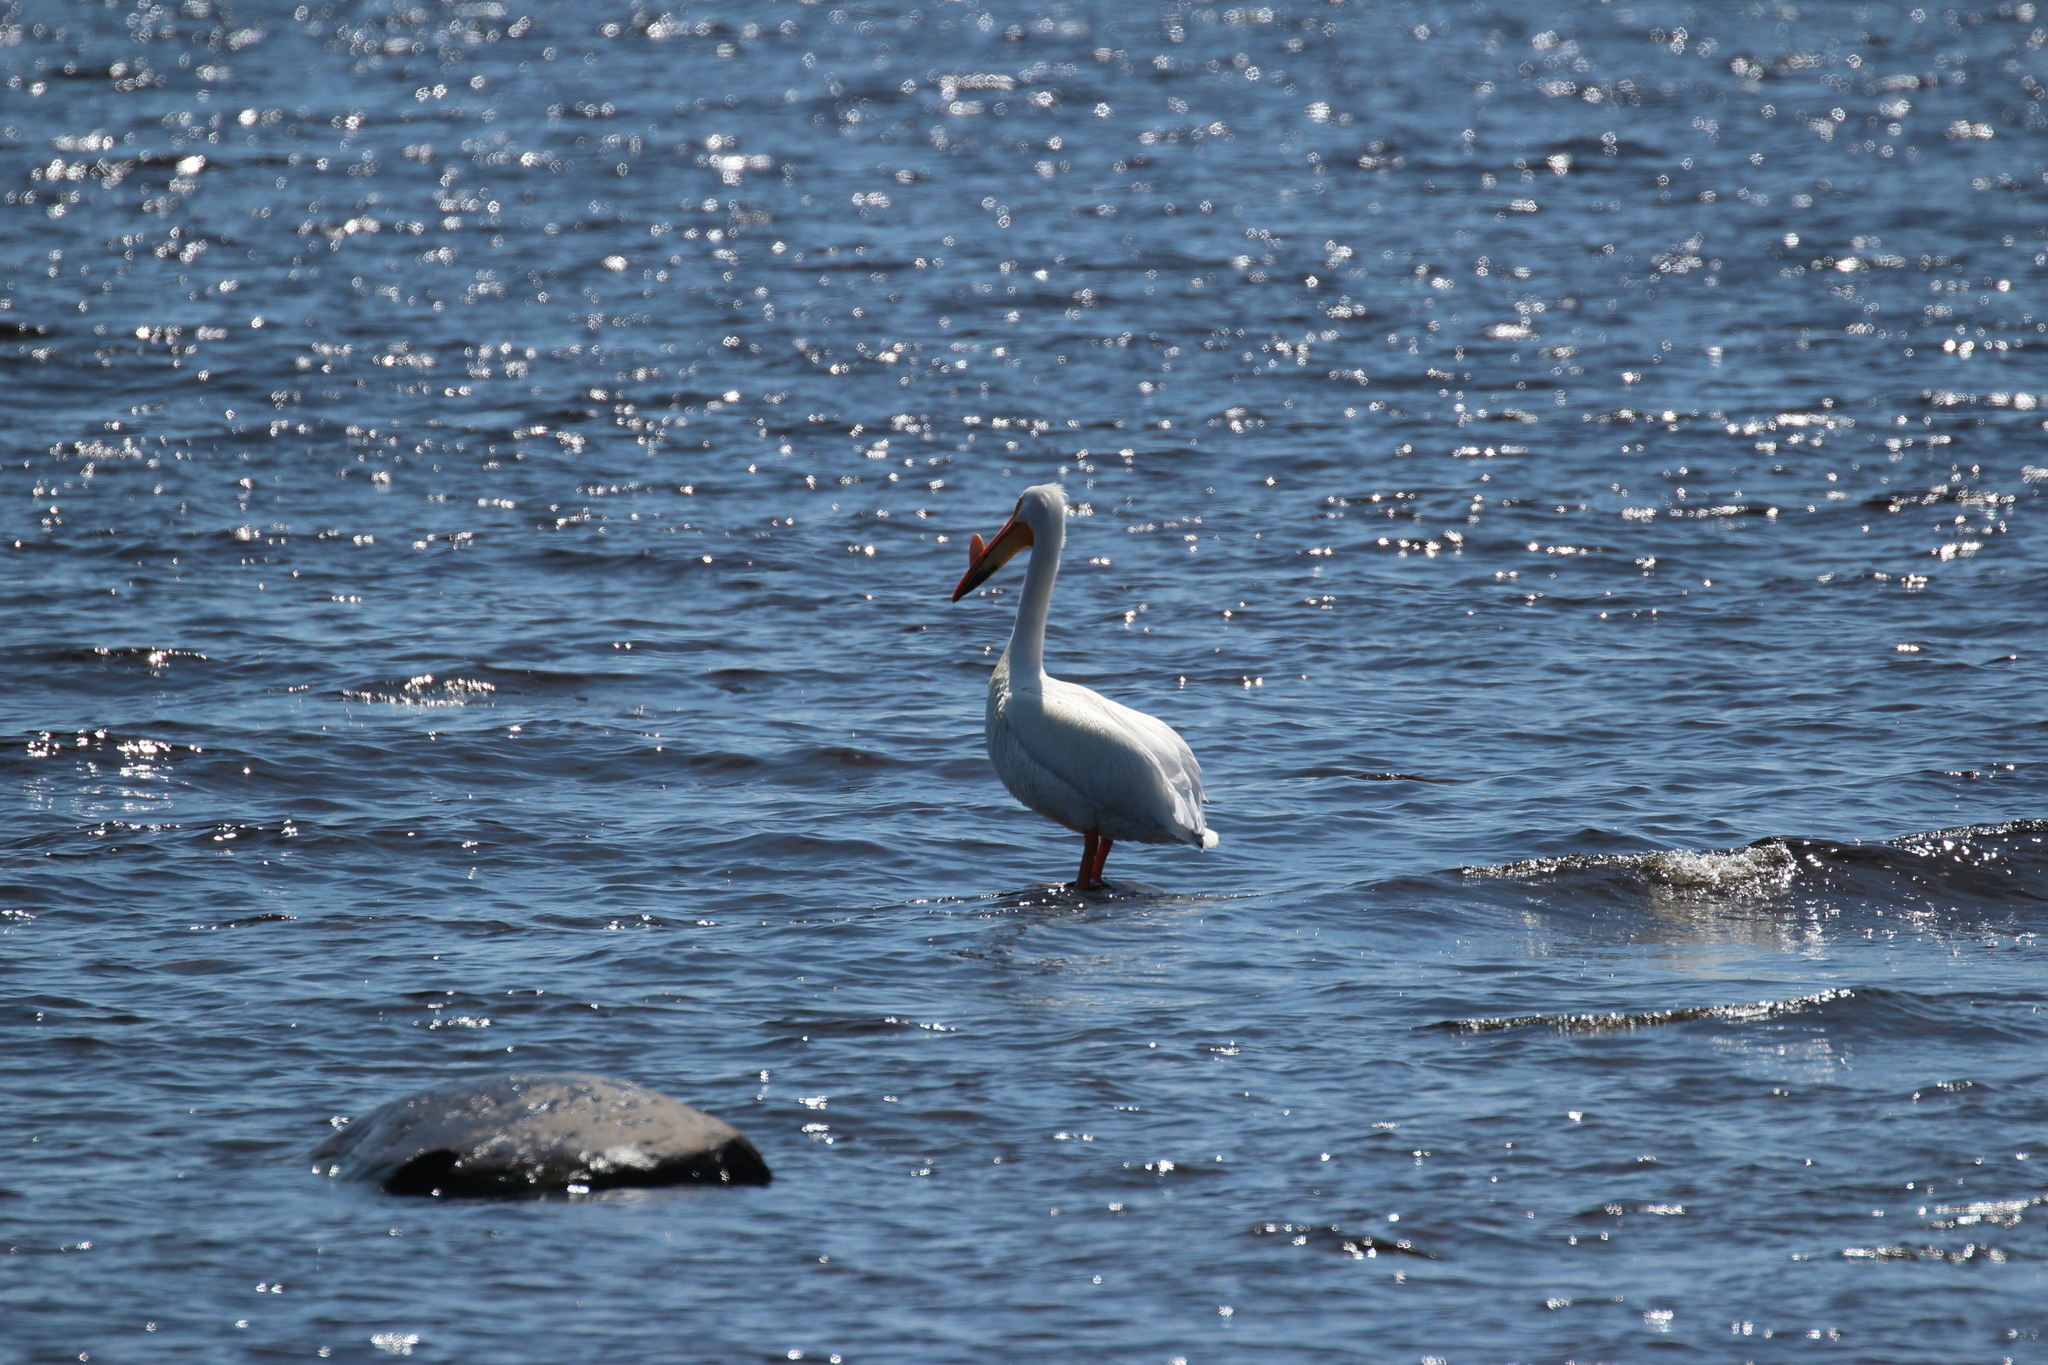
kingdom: Animalia
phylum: Chordata
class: Aves
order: Pelecaniformes
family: Pelecanidae
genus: Pelecanus
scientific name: Pelecanus erythrorhynchos
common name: American white pelican
